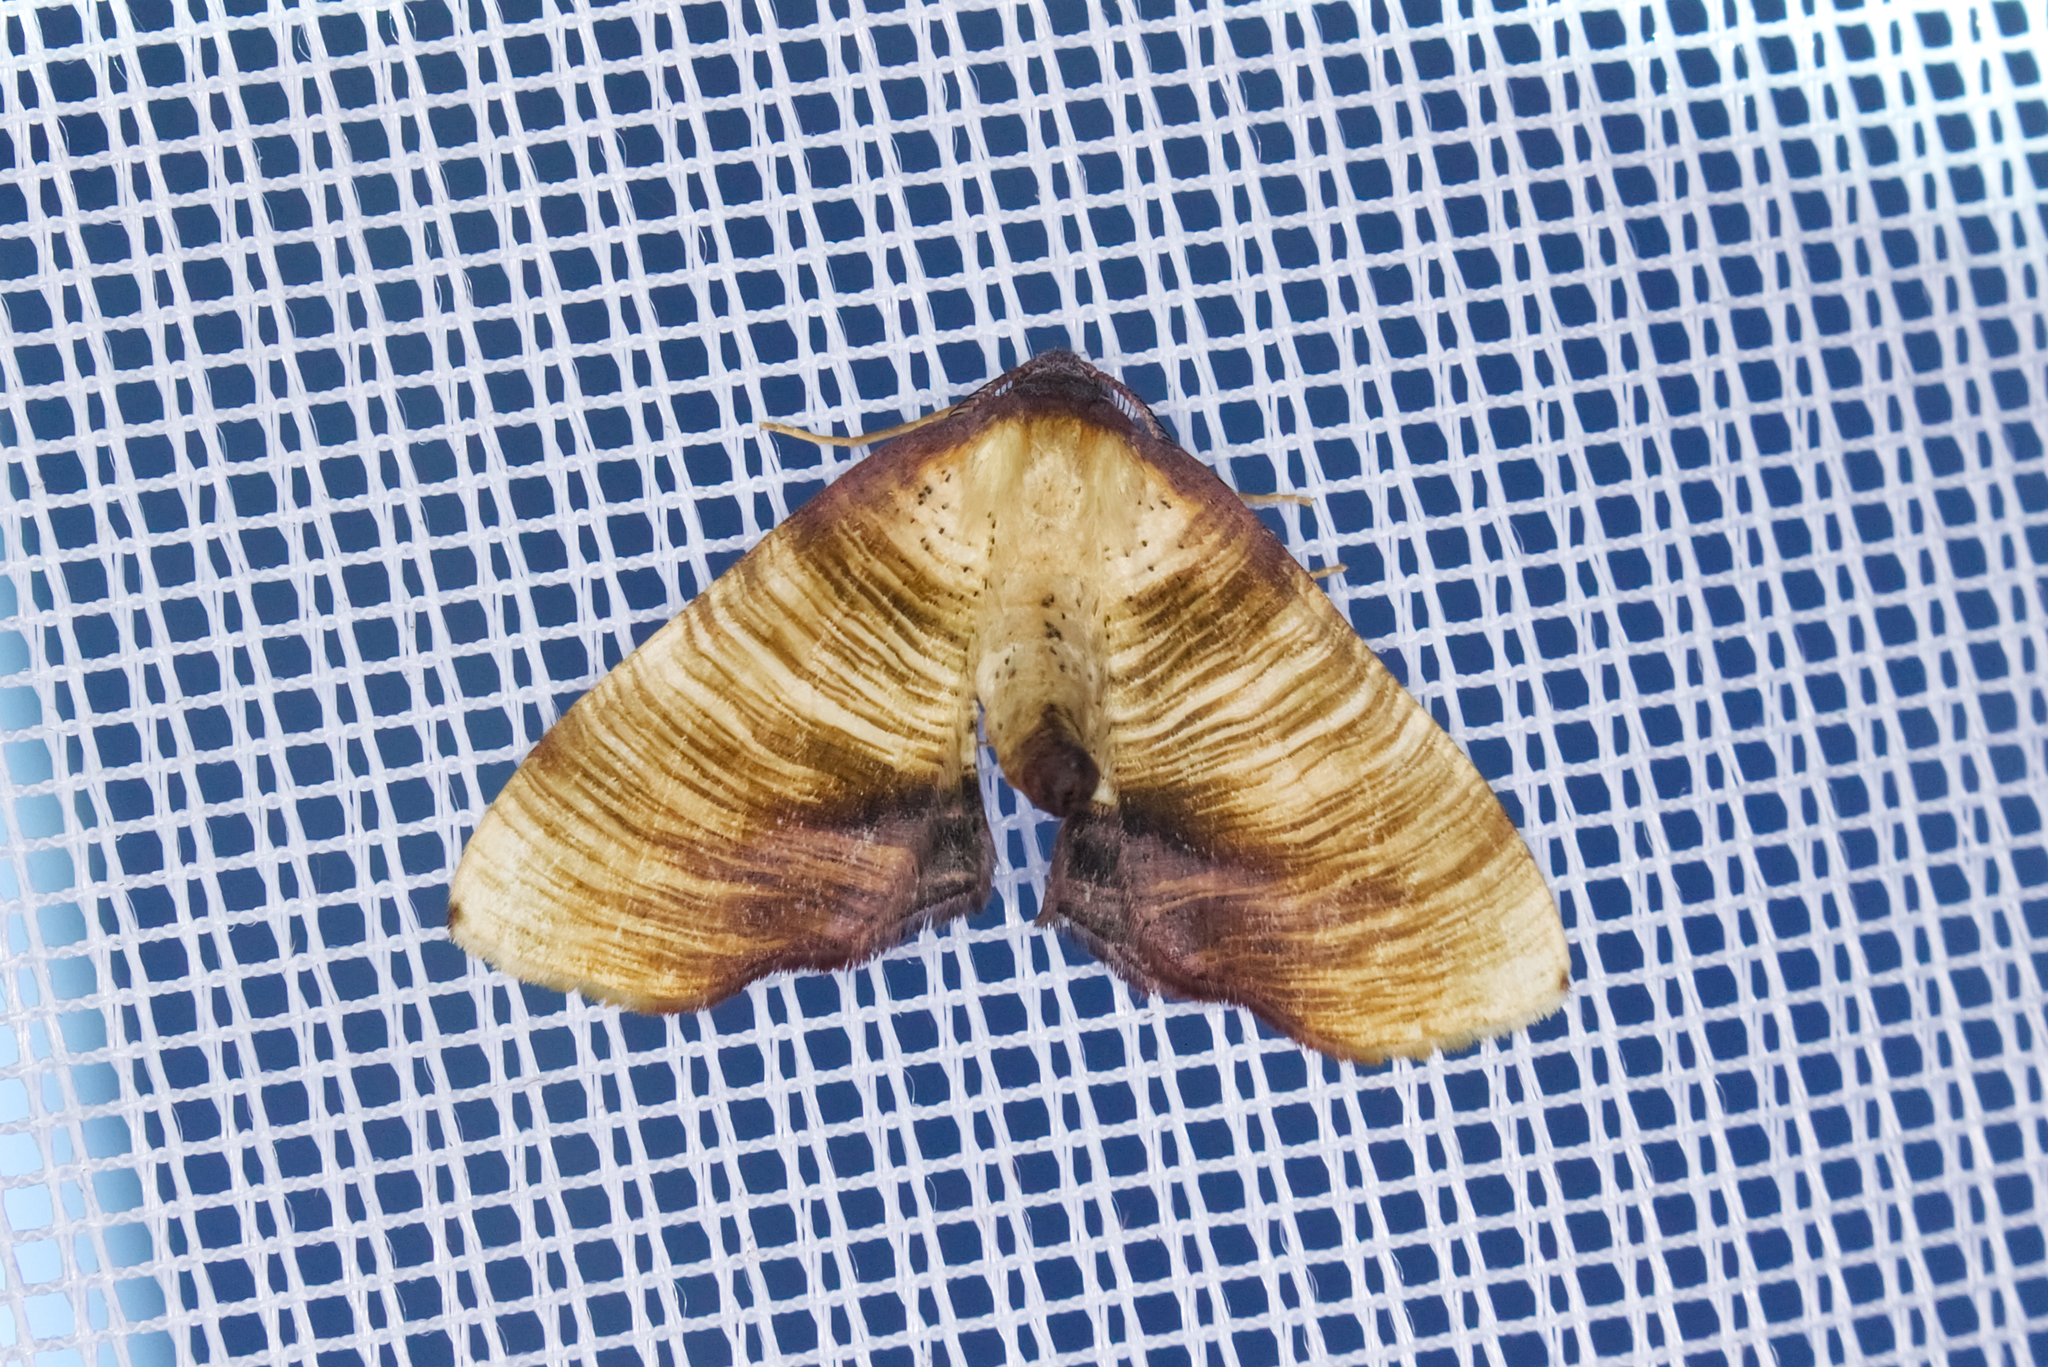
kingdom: Animalia
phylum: Arthropoda
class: Insecta
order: Lepidoptera
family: Geometridae
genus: Plagodis
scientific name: Plagodis dolabraria
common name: Scorched wing
